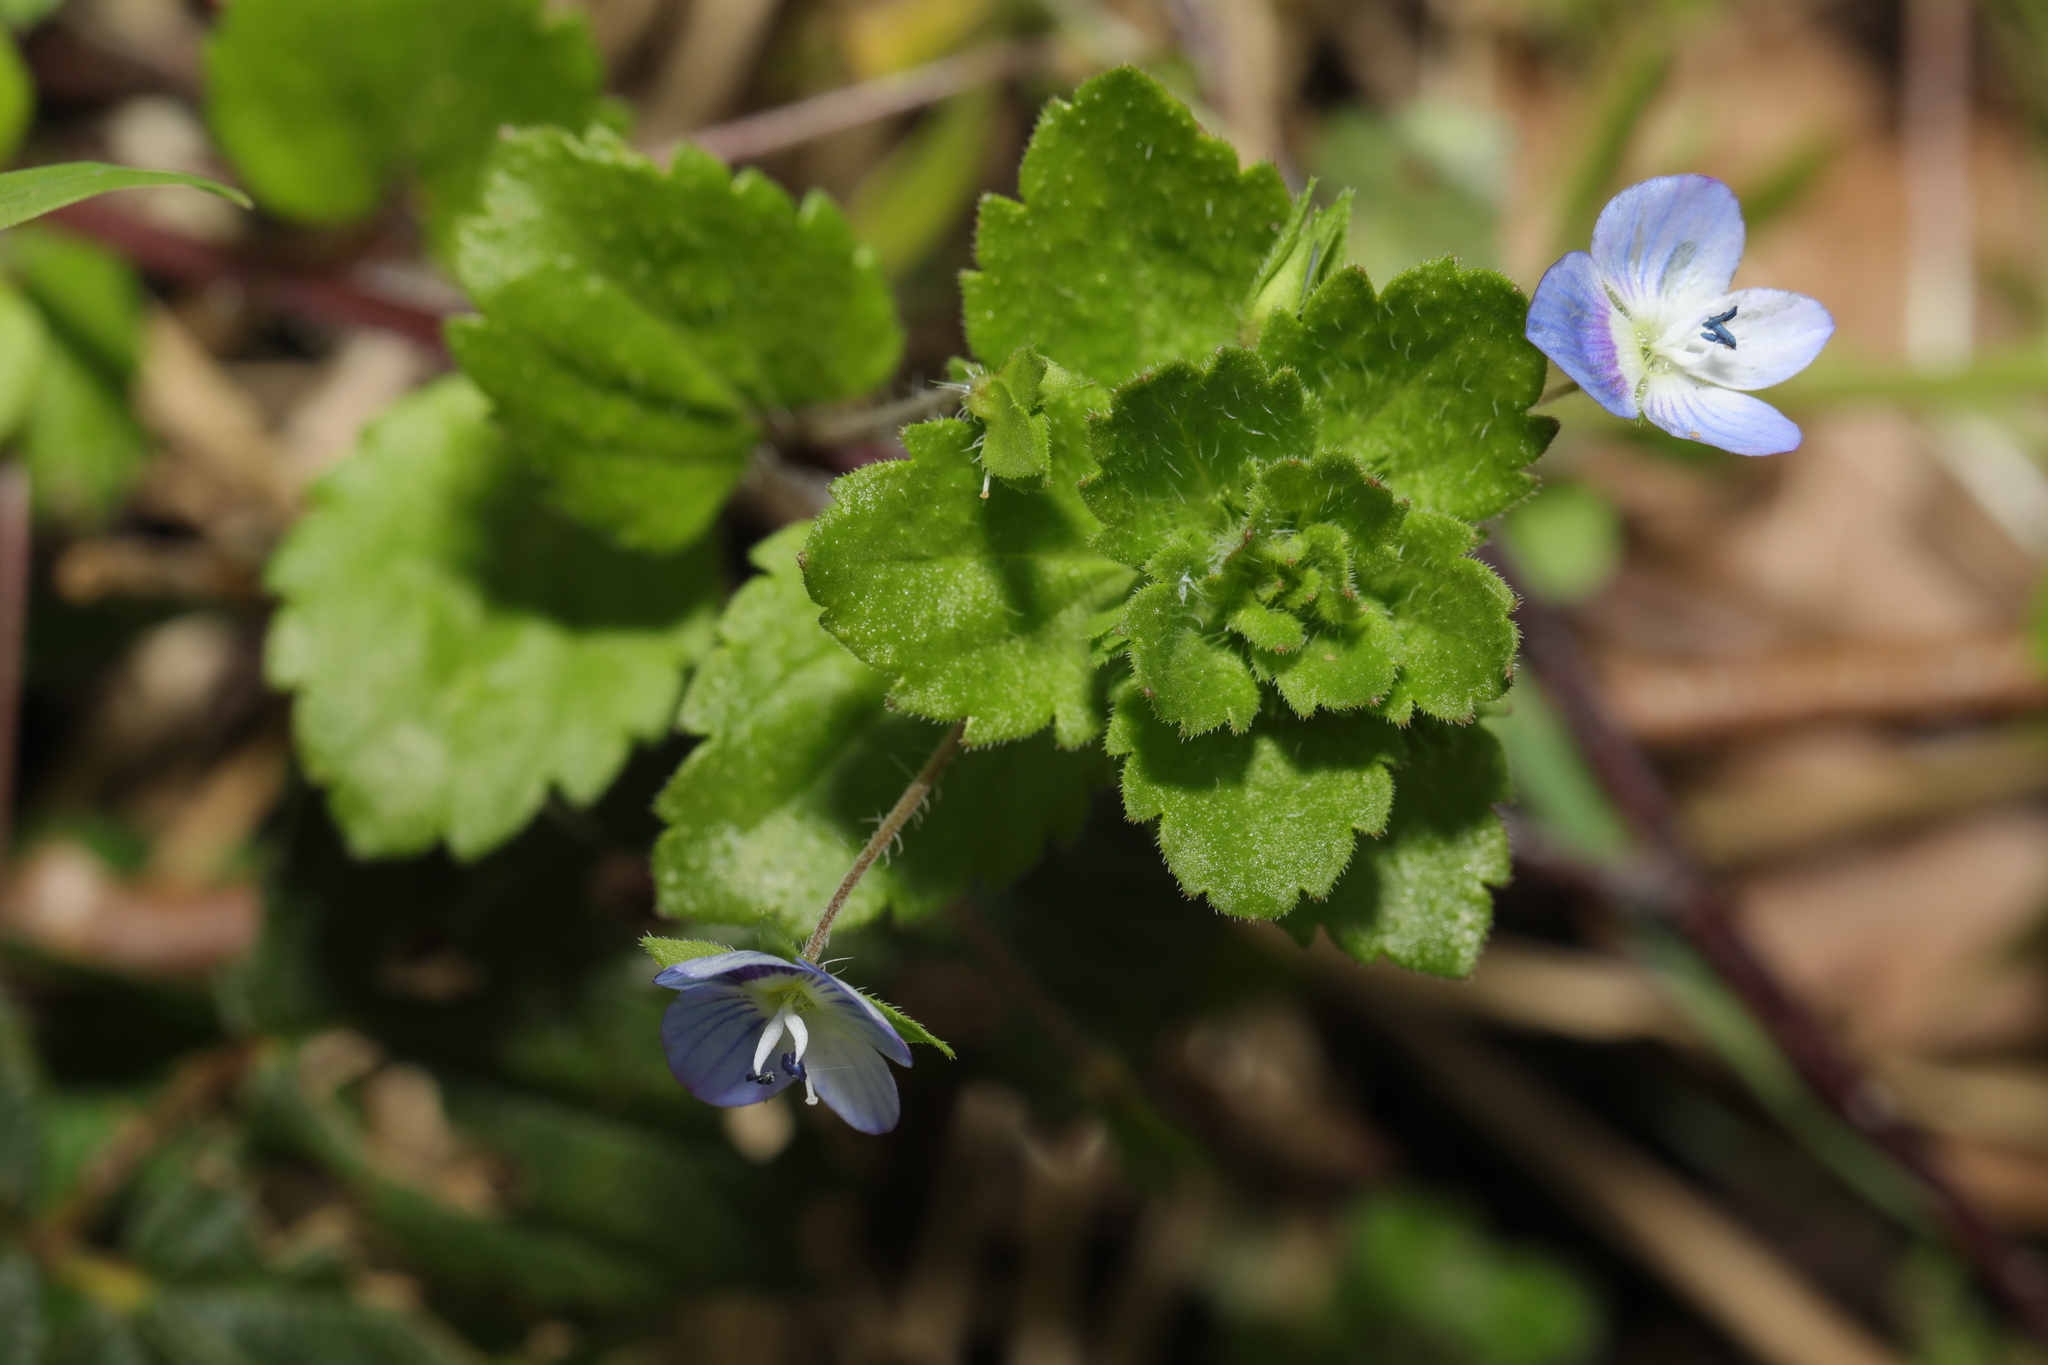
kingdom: Plantae
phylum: Tracheophyta
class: Magnoliopsida
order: Lamiales
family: Plantaginaceae
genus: Veronica
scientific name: Veronica persica
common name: Common field-speedwell
